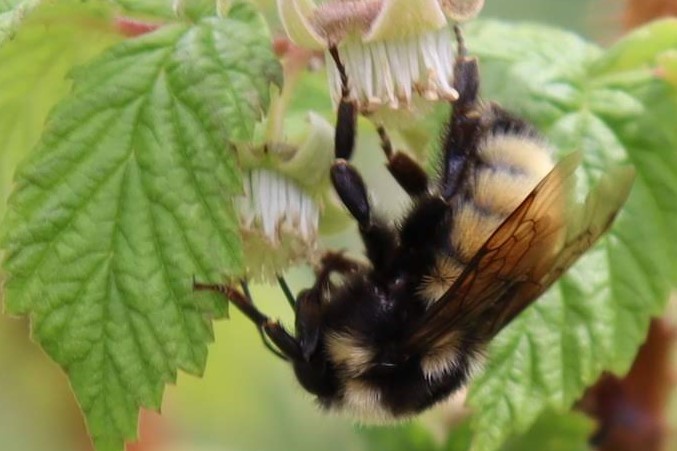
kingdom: Animalia
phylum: Arthropoda
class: Insecta
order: Hymenoptera
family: Apidae
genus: Bombus
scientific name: Bombus
